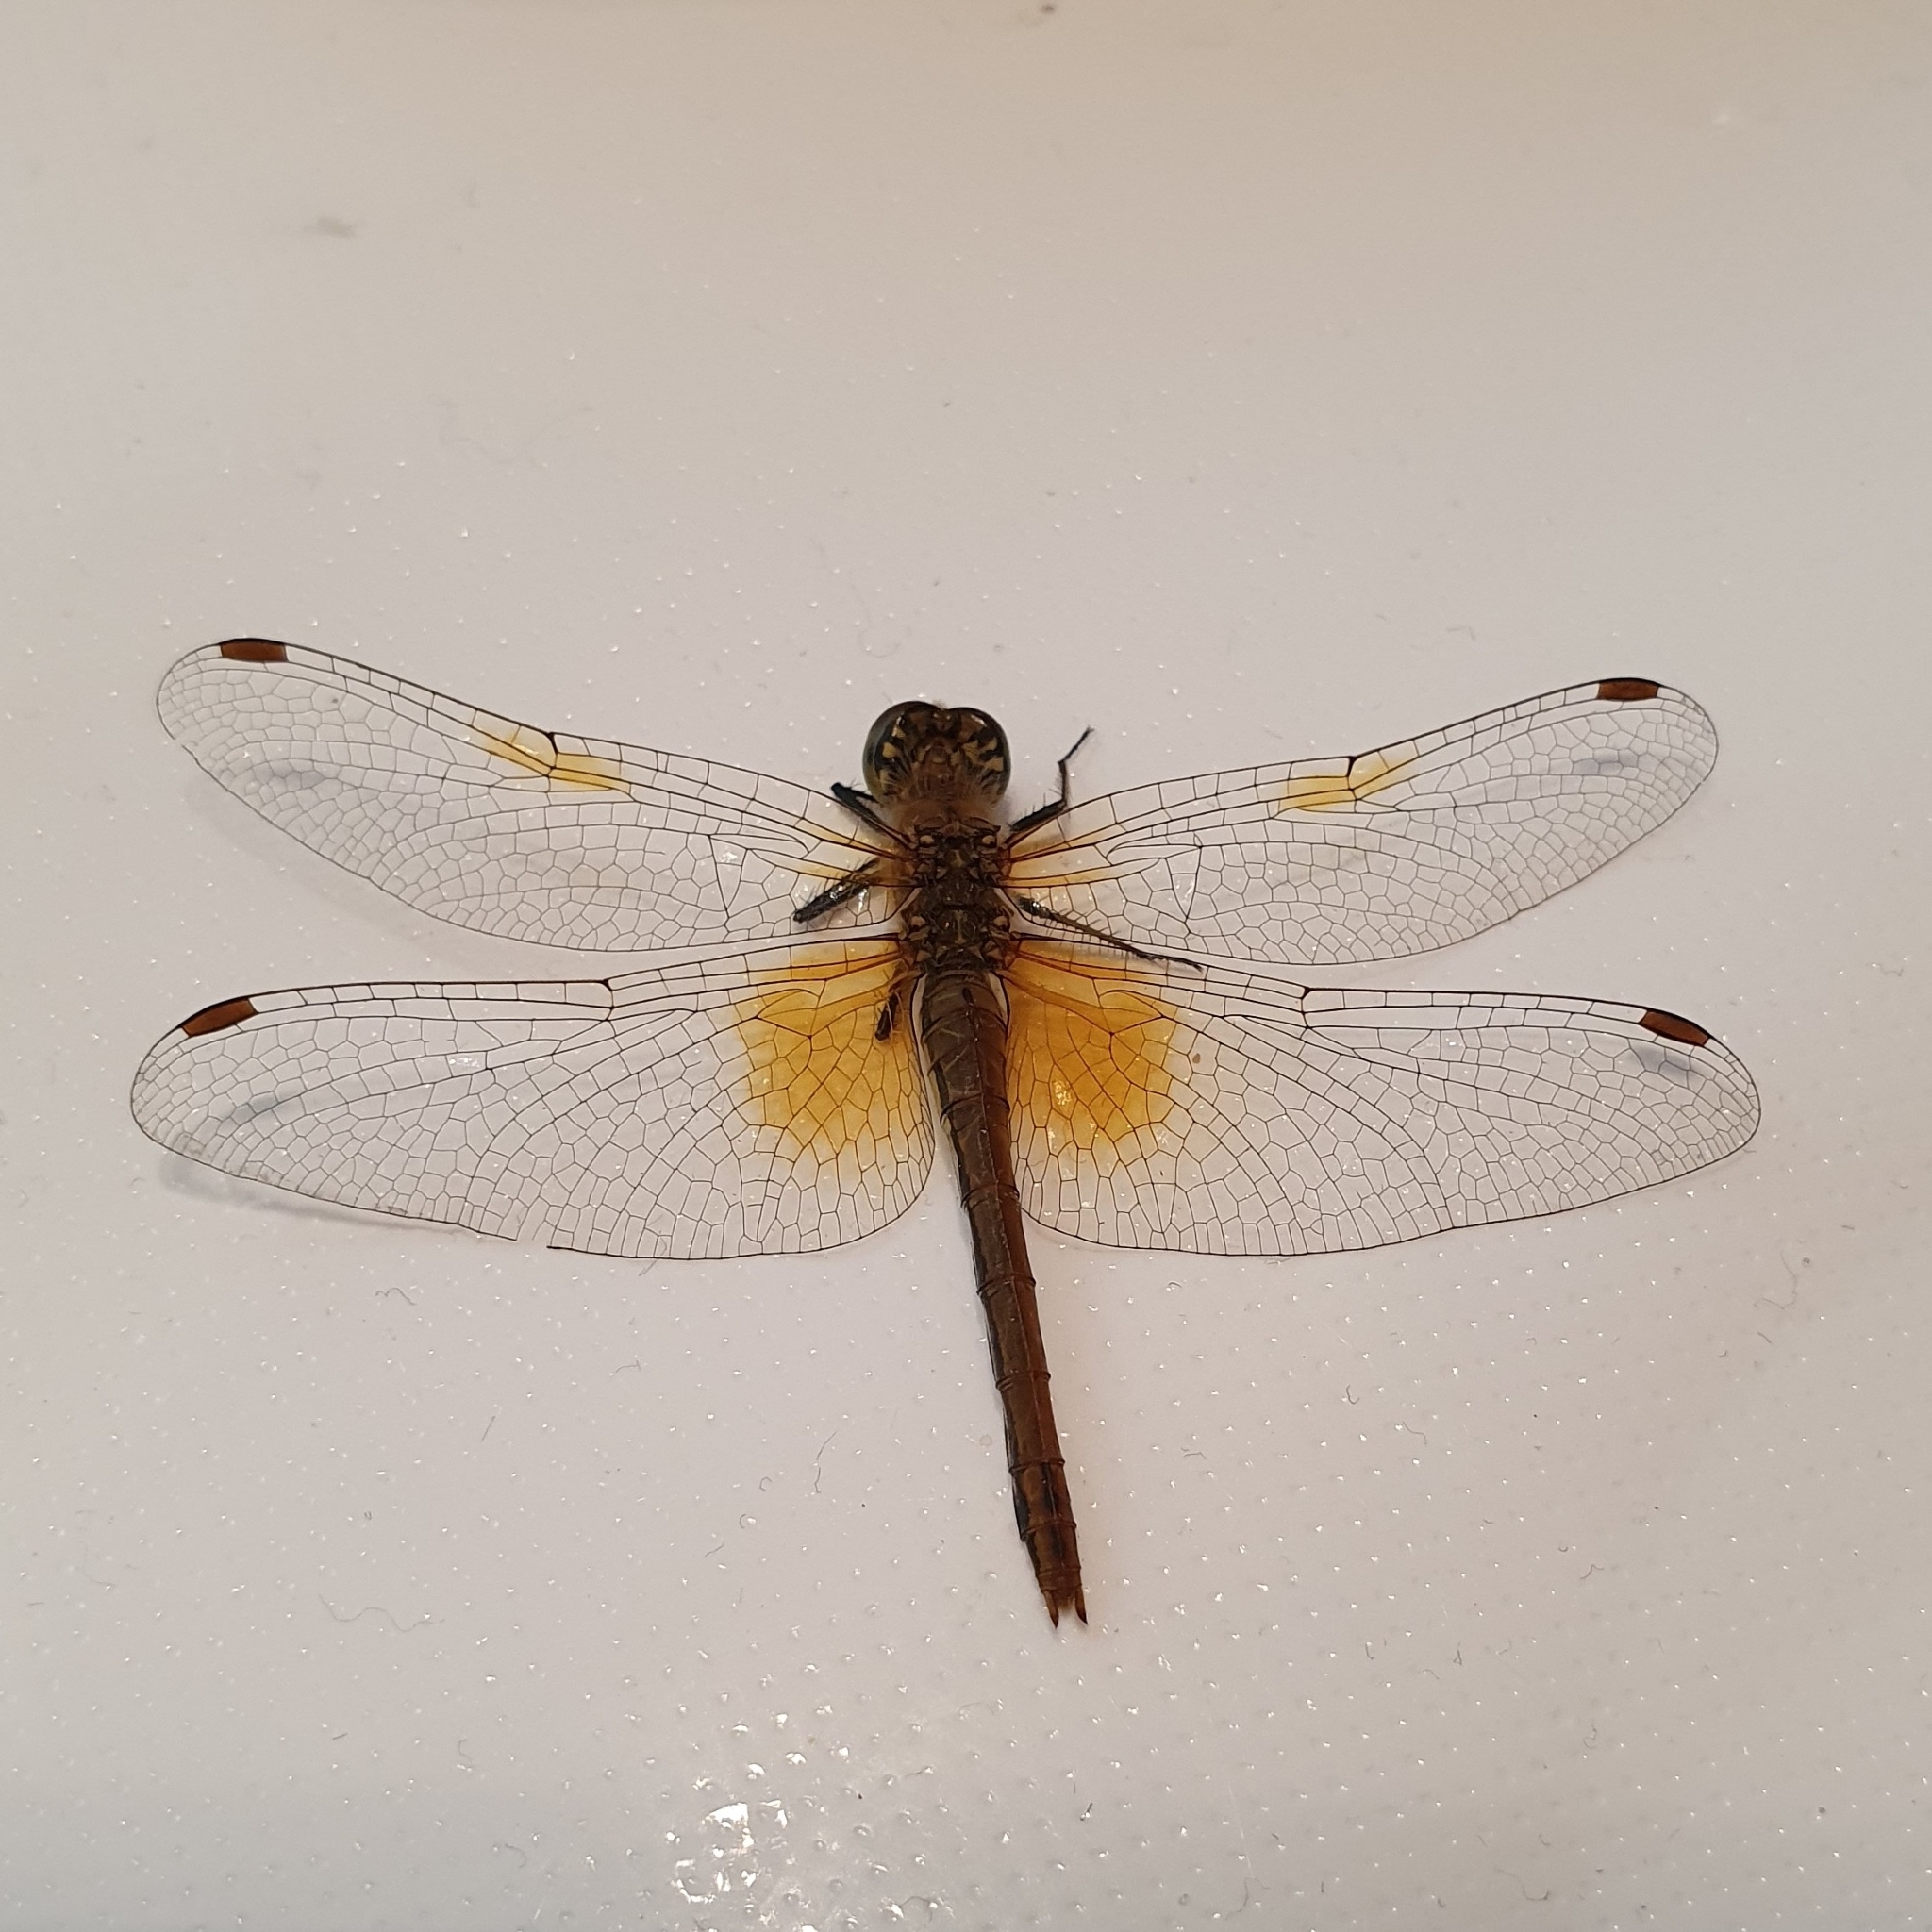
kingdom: Animalia
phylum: Arthropoda
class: Insecta
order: Odonata
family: Libellulidae
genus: Sympetrum
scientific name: Sympetrum flaveolum
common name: Yellow-winged darter
